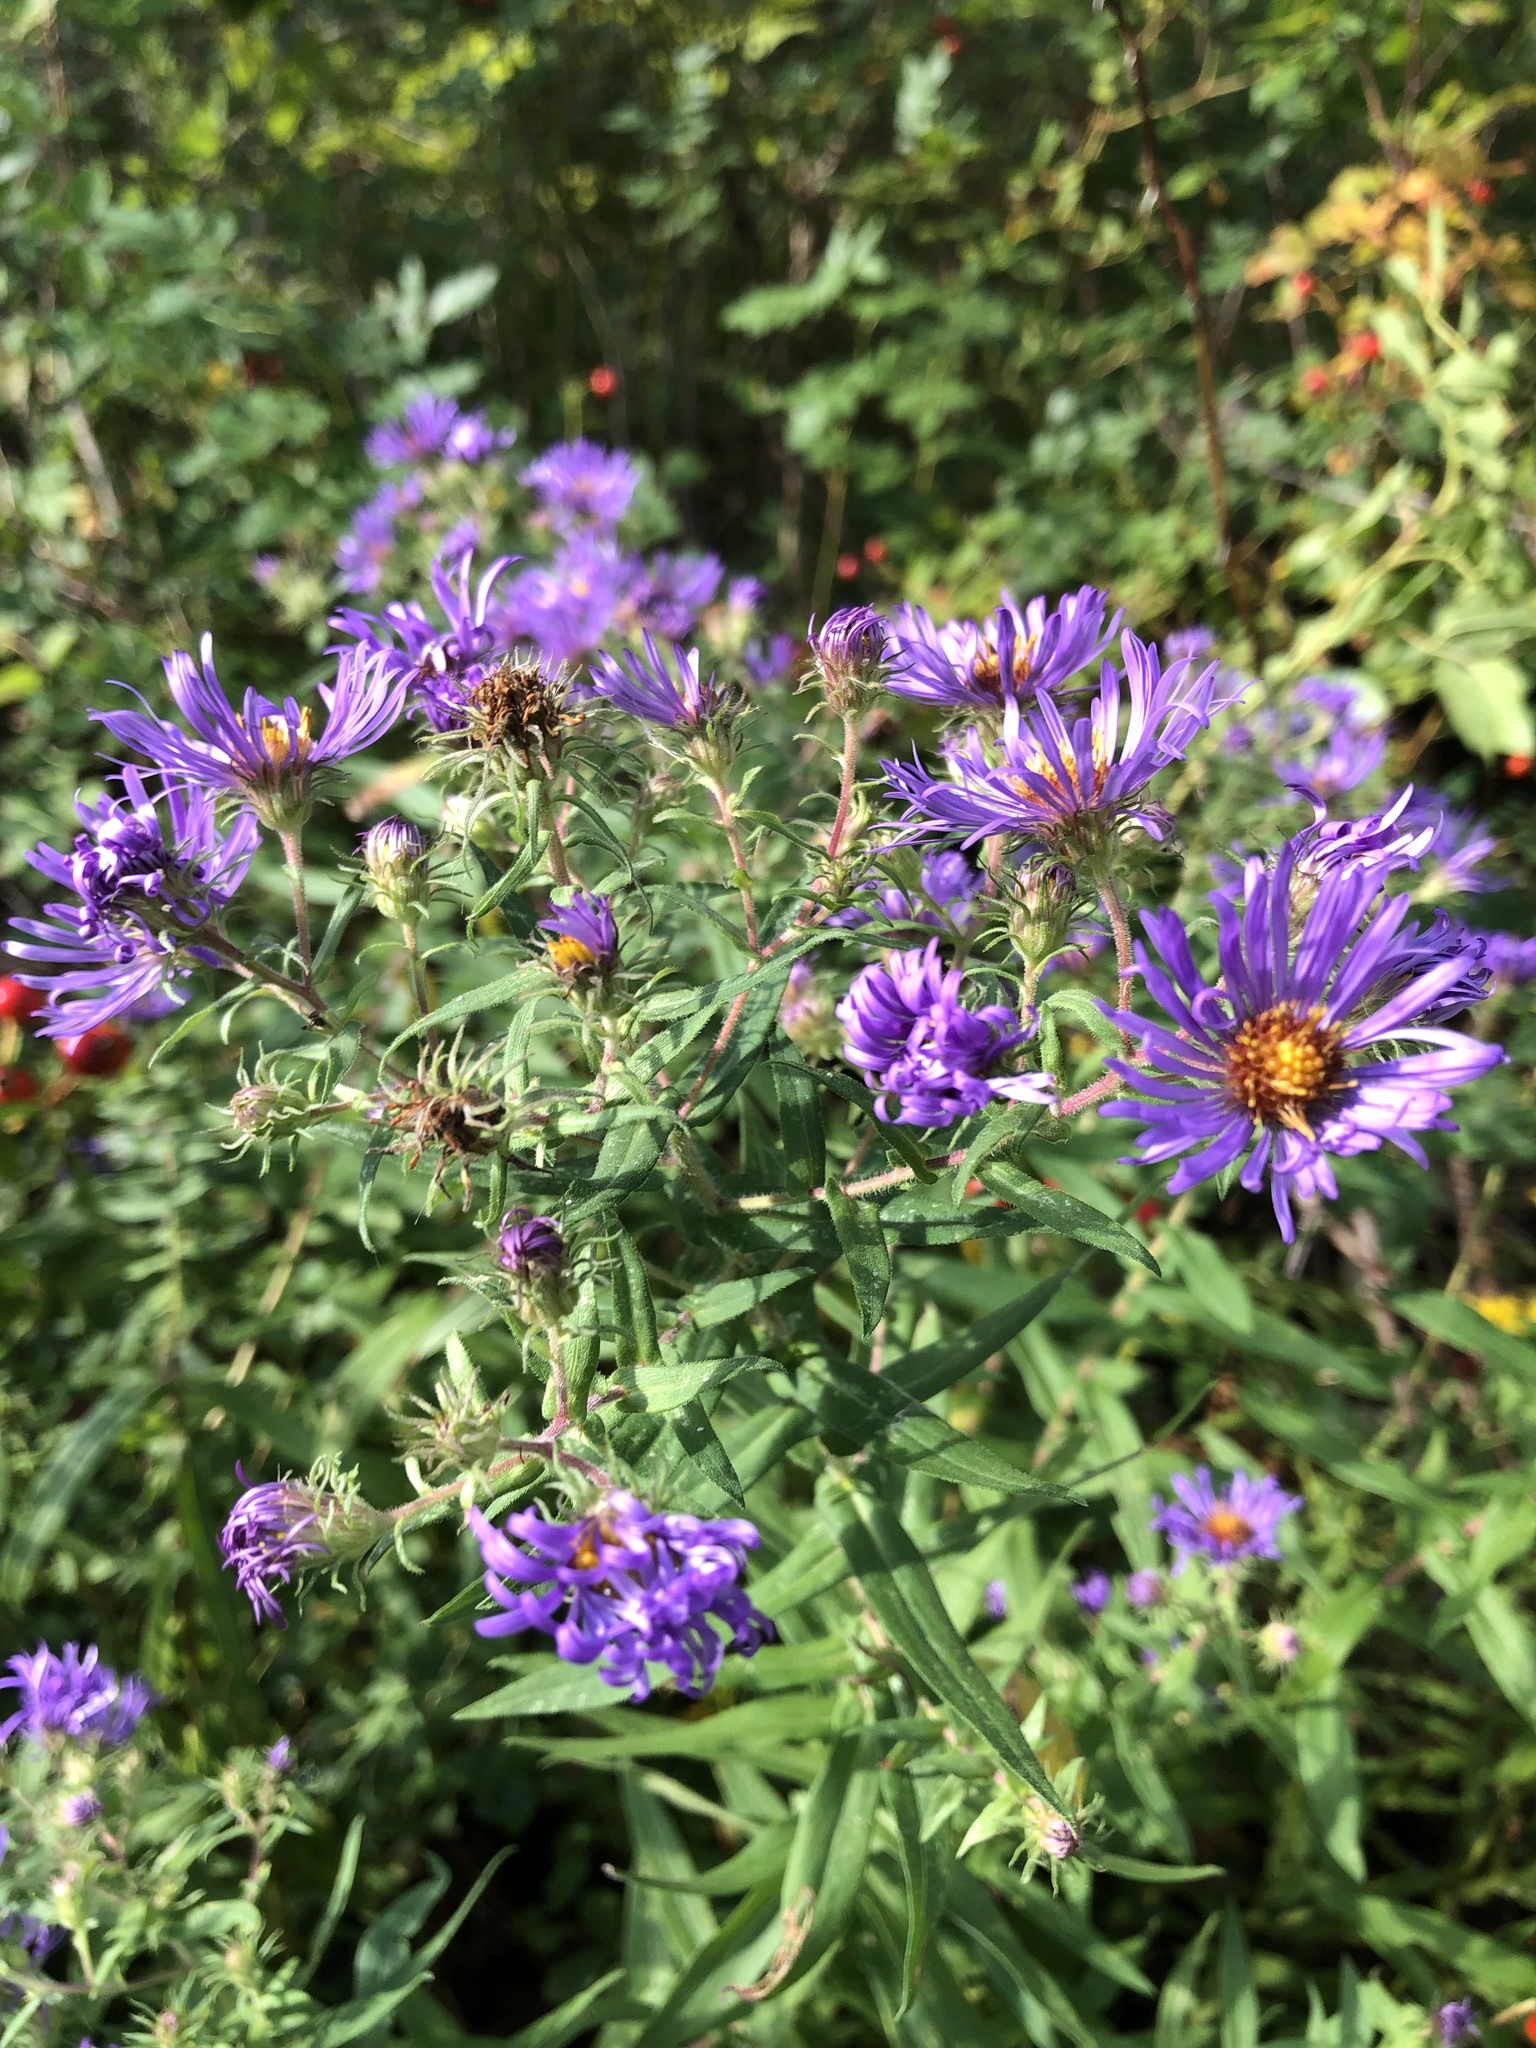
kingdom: Plantae
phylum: Tracheophyta
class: Magnoliopsida
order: Asterales
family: Asteraceae
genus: Symphyotrichum
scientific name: Symphyotrichum novae-angliae
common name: Michaelmas daisy
